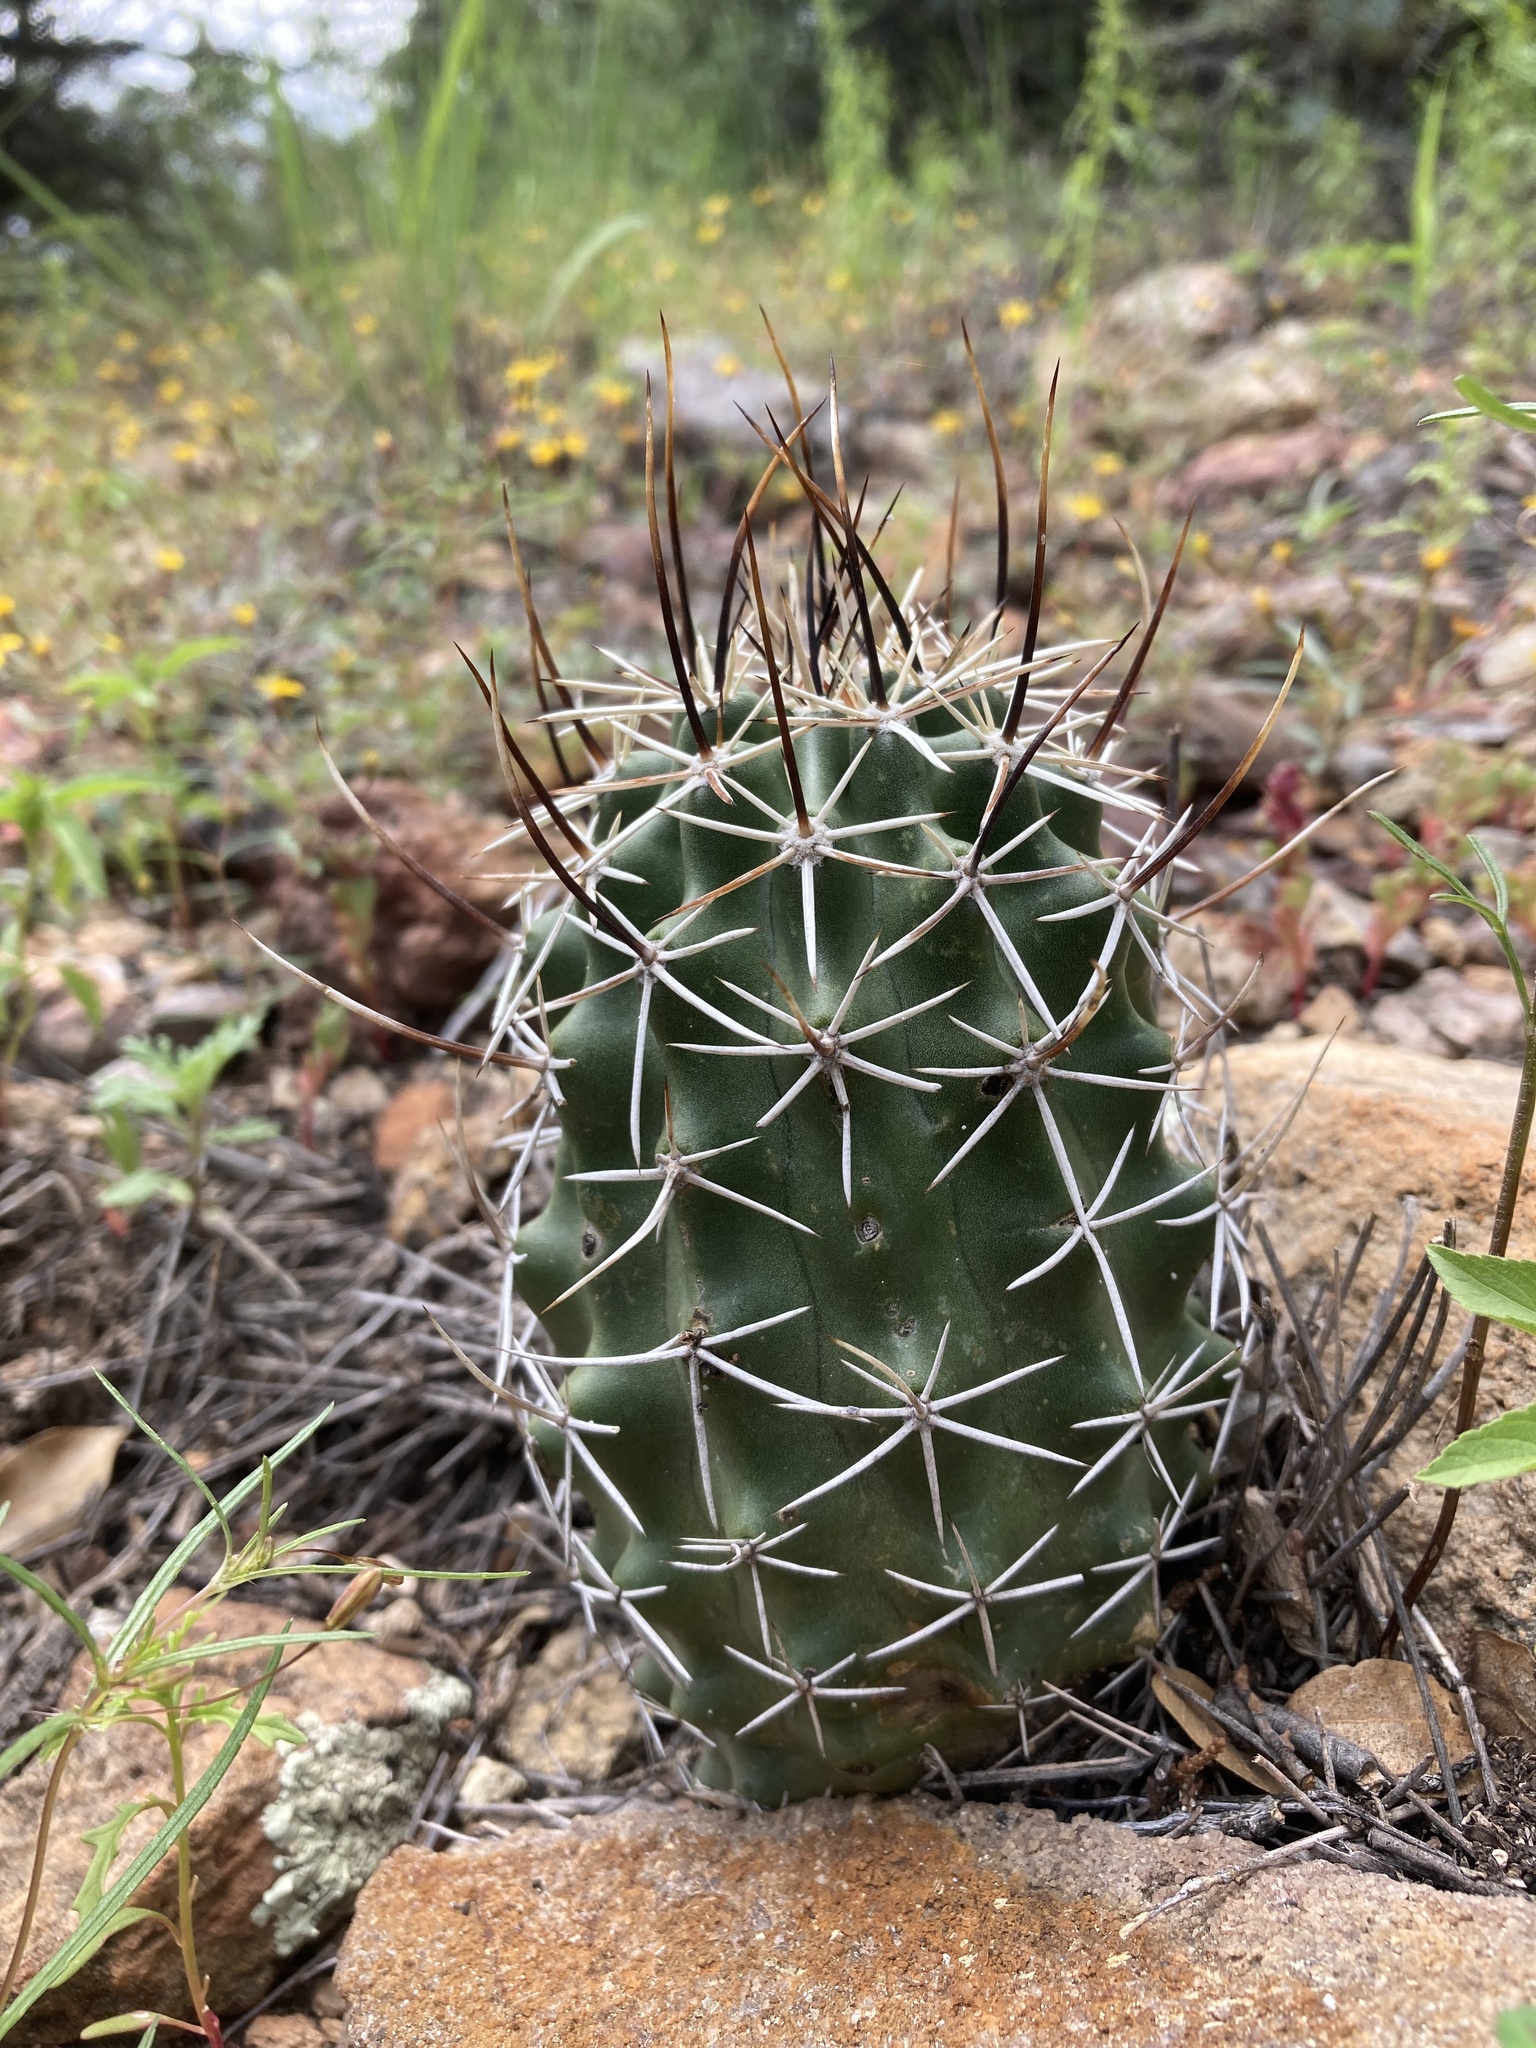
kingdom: Plantae
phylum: Tracheophyta
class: Magnoliopsida
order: Caryophyllales
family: Cactaceae
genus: Echinocereus
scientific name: Echinocereus fendleri
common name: Fendler's hedgehog cactus
